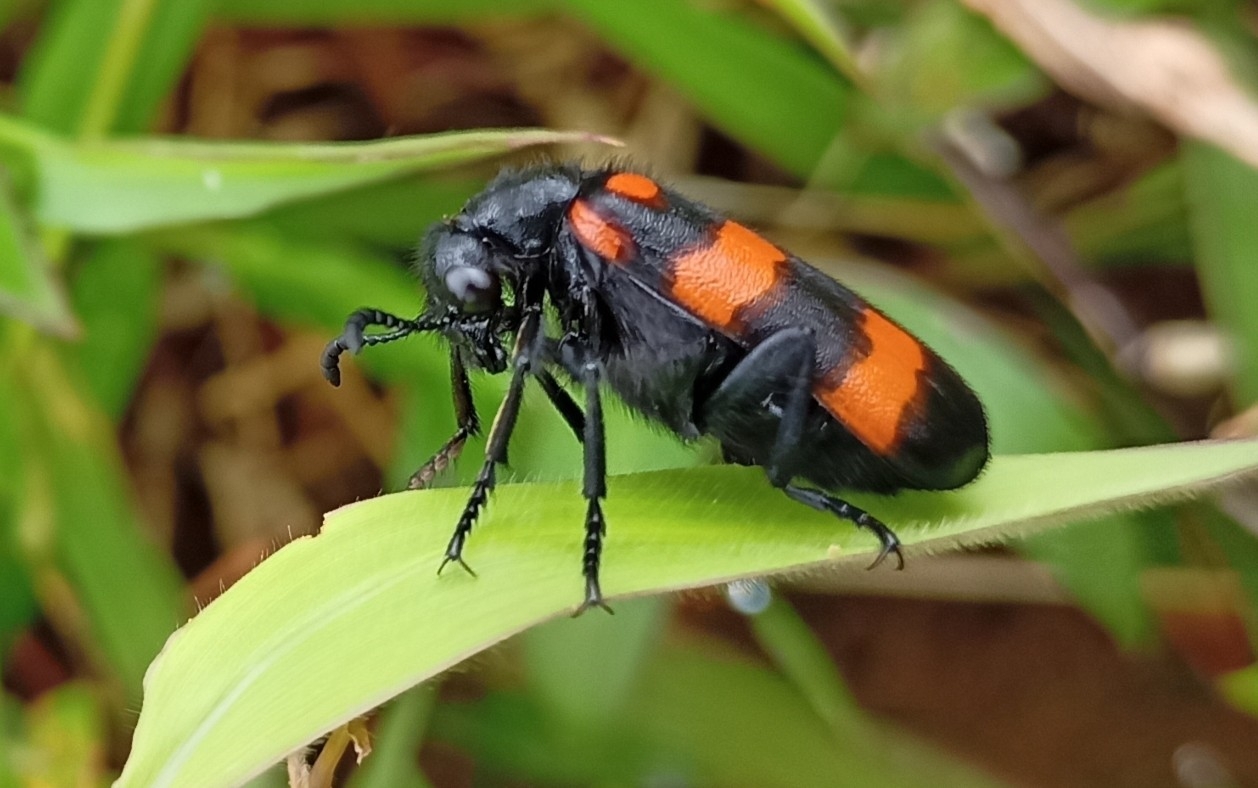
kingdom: Animalia
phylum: Arthropoda
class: Insecta
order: Coleoptera
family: Meloidae
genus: Hycleus
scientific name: Hycleus biundulatus
